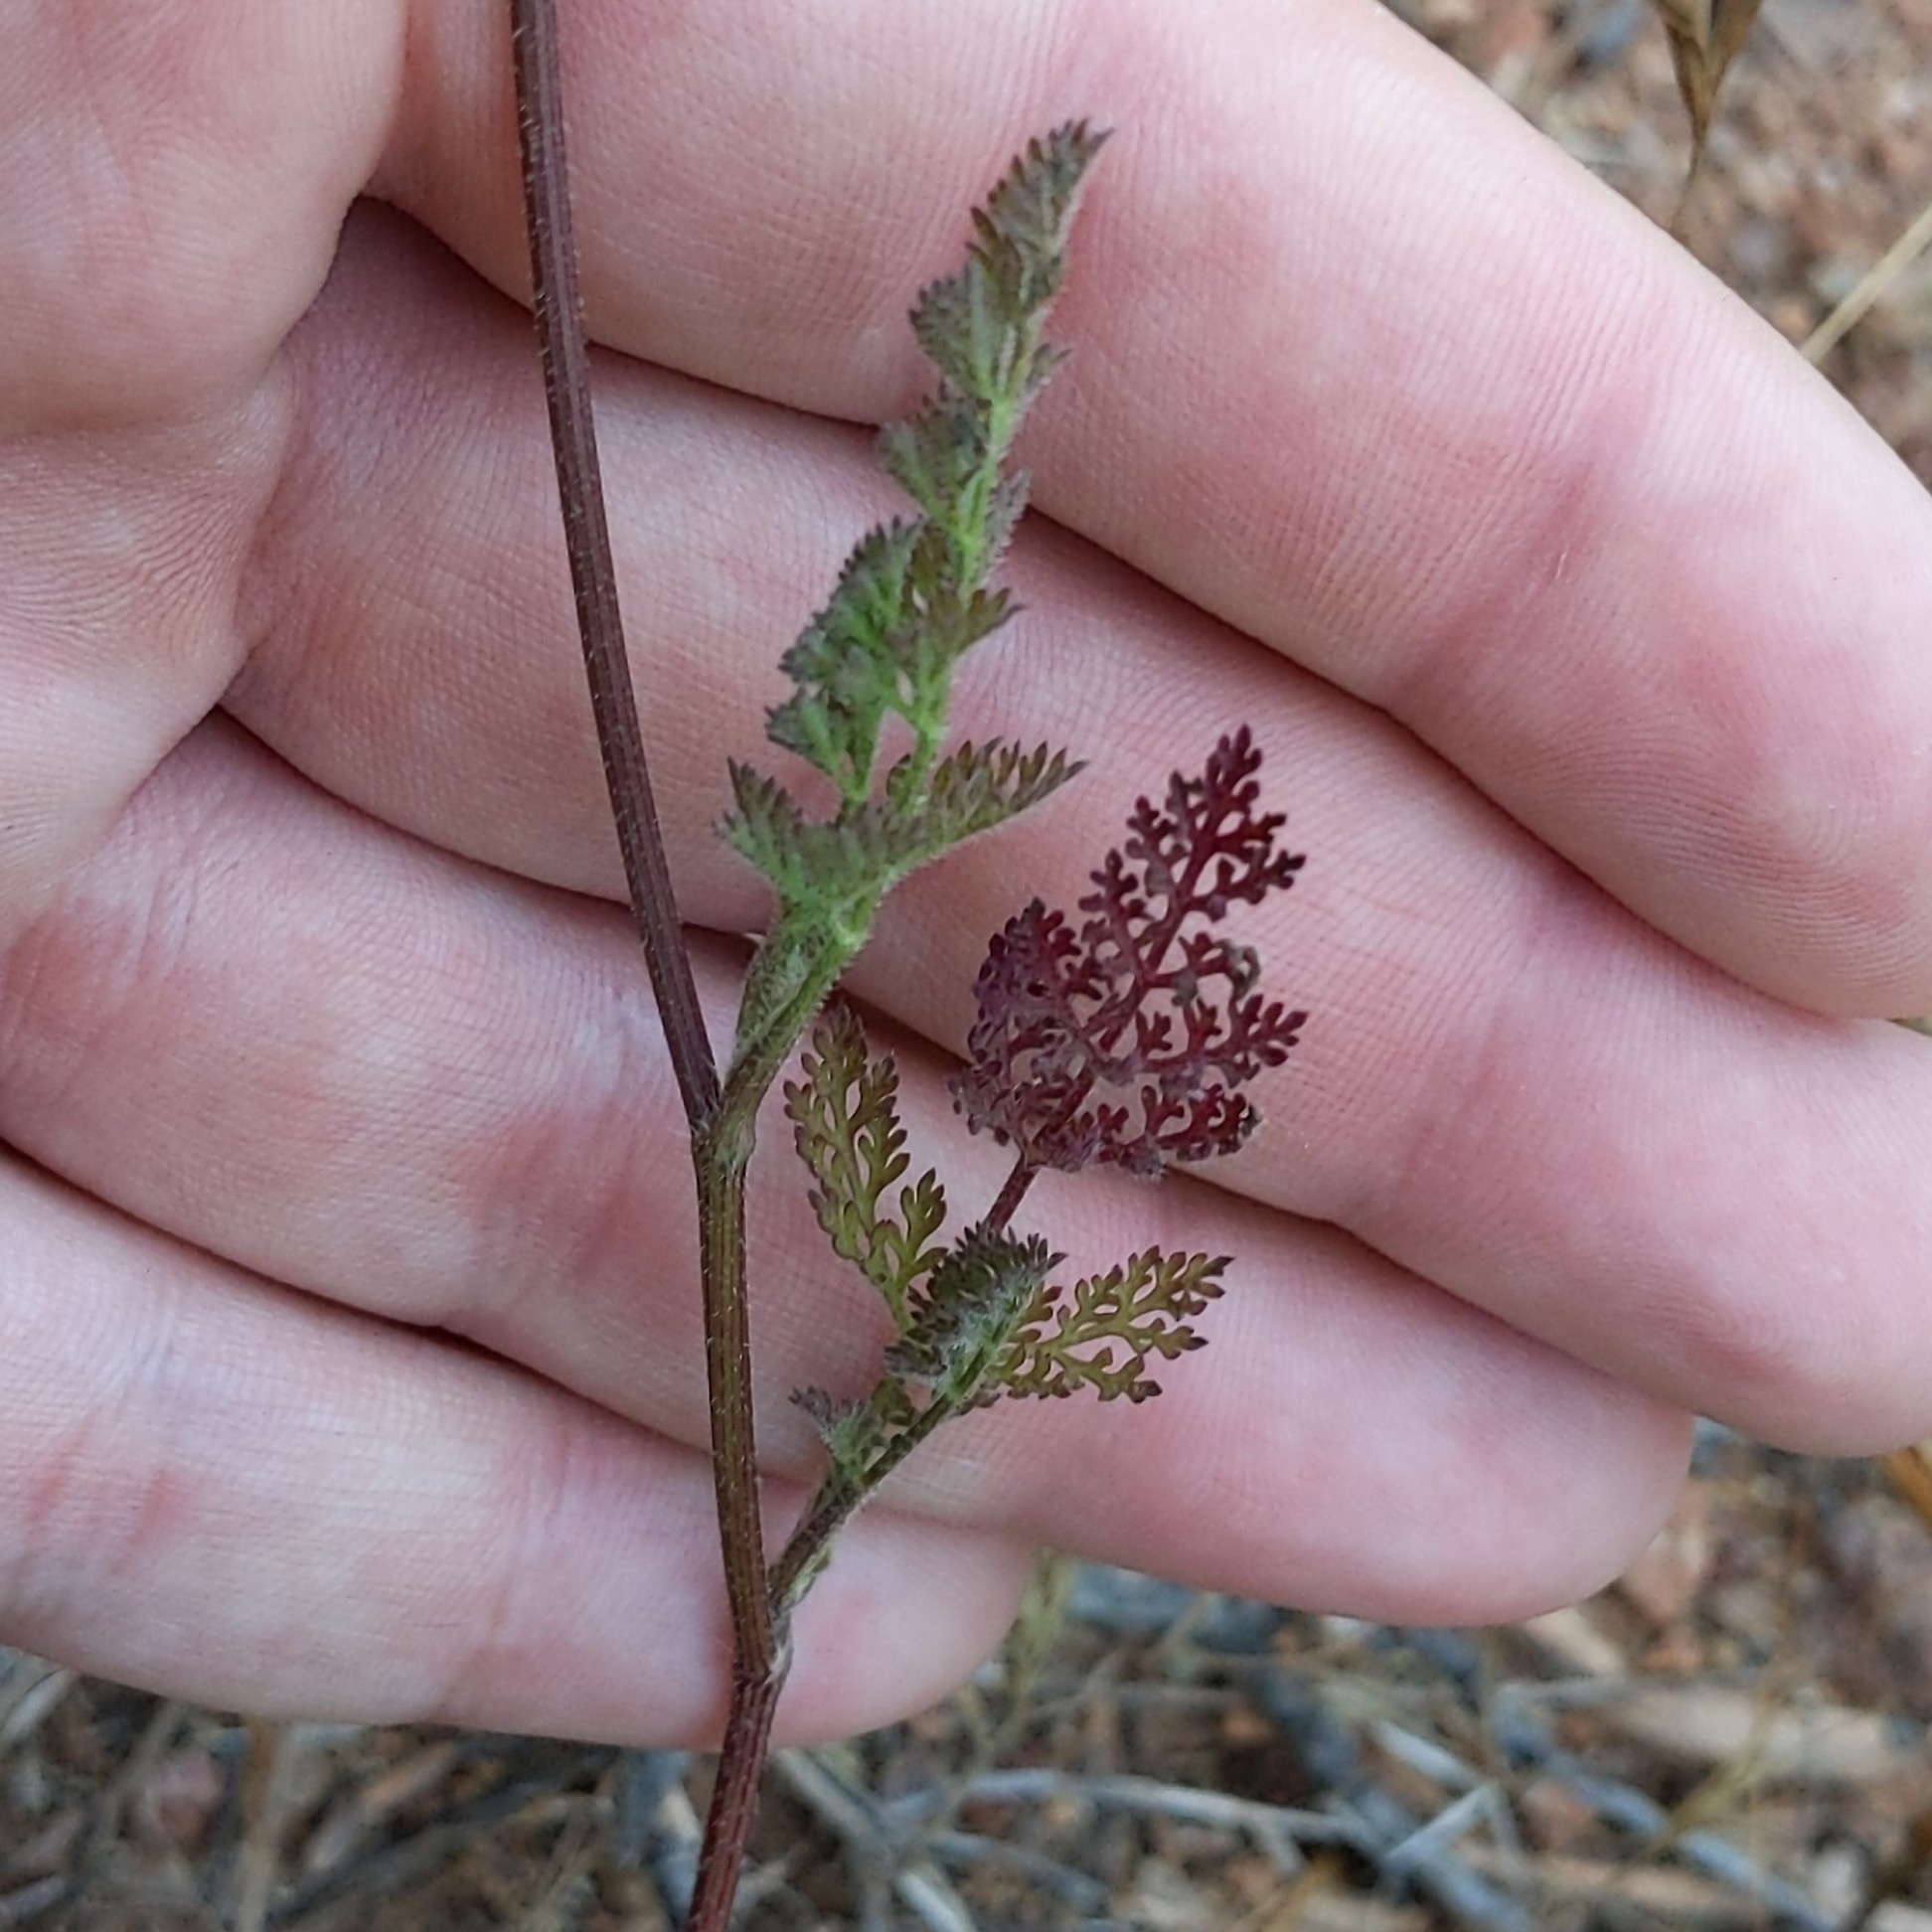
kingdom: Plantae
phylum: Tracheophyta
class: Magnoliopsida
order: Apiales
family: Apiaceae
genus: Daucus
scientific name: Daucus pusillus
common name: Southwest wild carrot
